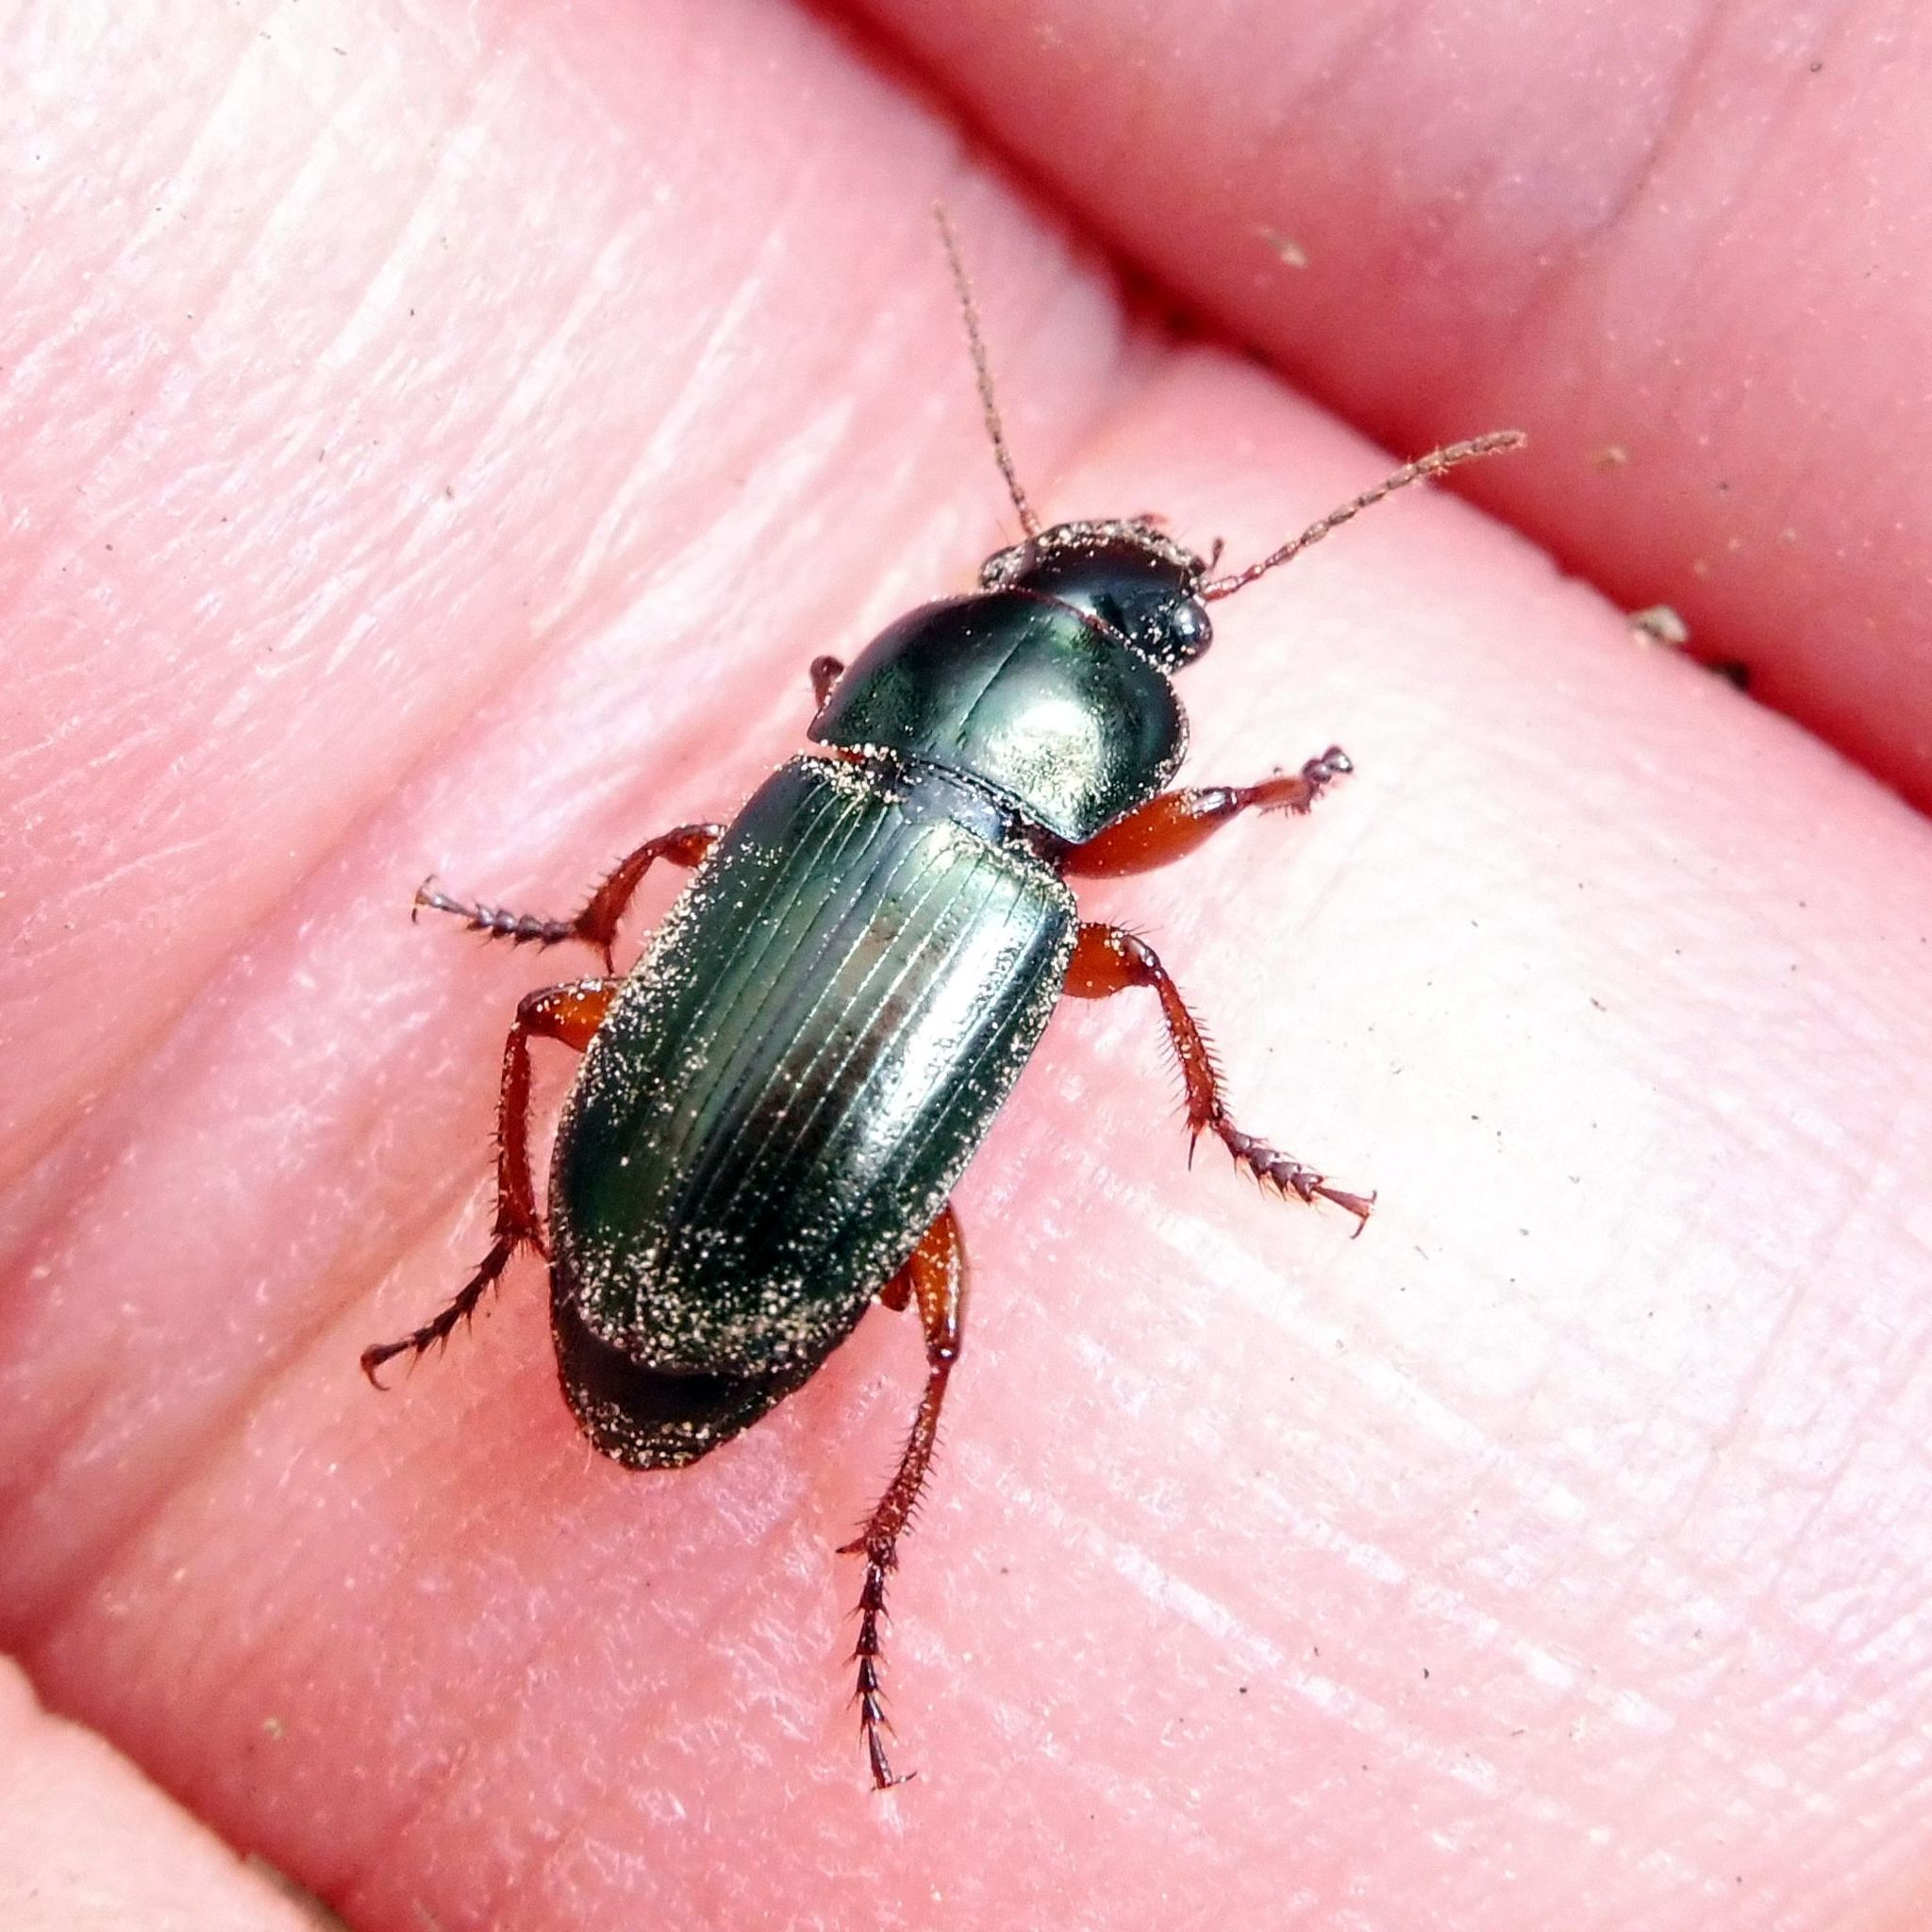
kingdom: Animalia
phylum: Arthropoda
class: Insecta
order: Coleoptera
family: Carabidae
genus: Harpalus
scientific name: Harpalus affinis
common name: Polychrome harp ground beetle
